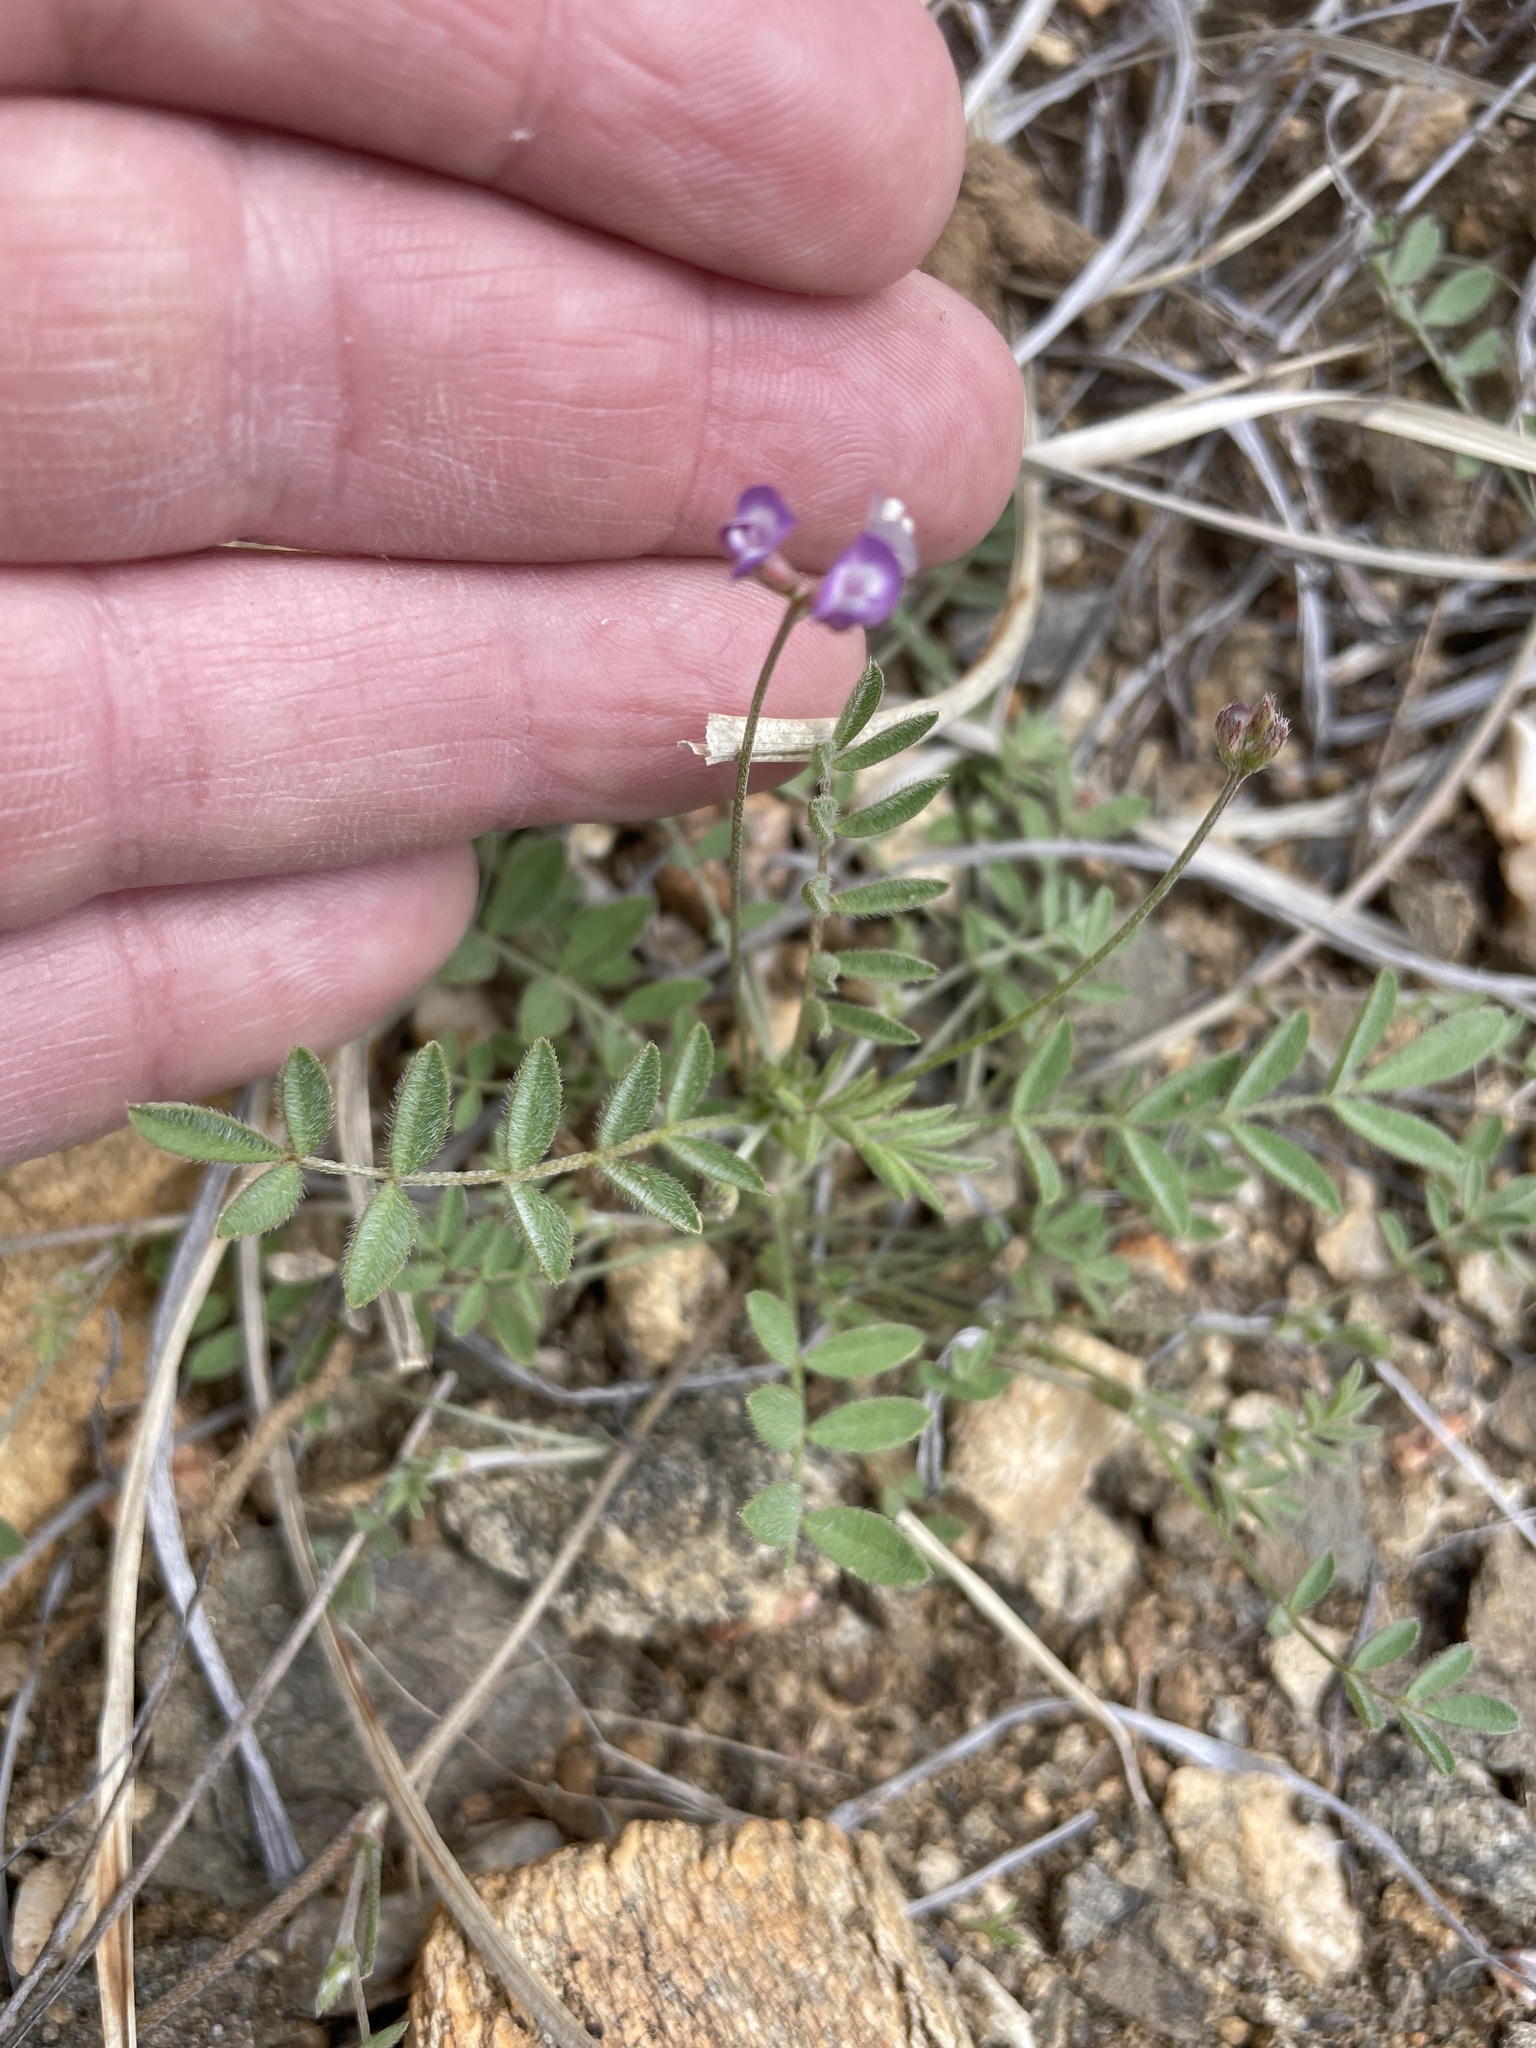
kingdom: Plantae
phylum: Tracheophyta
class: Magnoliopsida
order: Fabales
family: Fabaceae
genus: Astragalus
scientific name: Astragalus nuttallianus
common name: Smallflowered milkvetch
